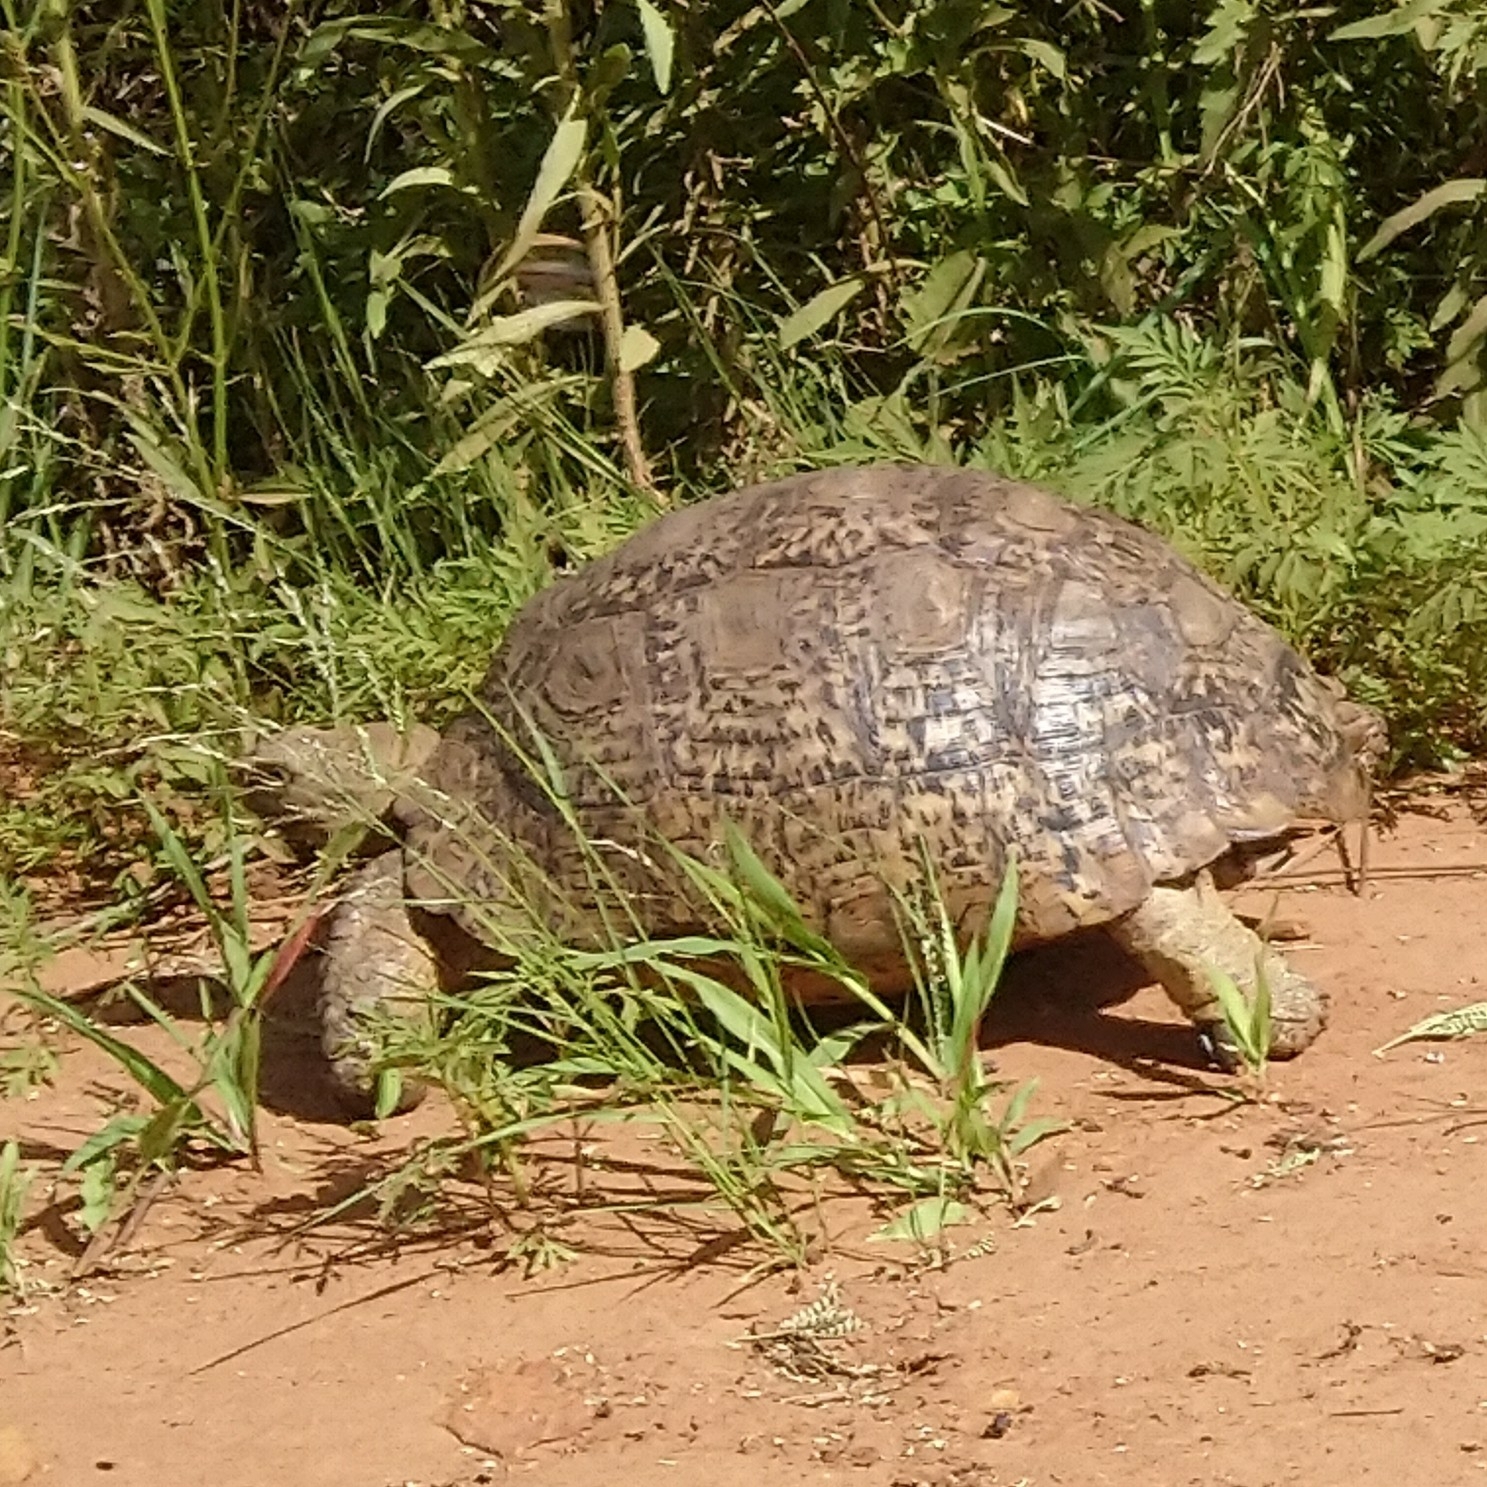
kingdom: Animalia
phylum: Chordata
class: Testudines
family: Testudinidae
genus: Stigmochelys
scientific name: Stigmochelys pardalis
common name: Leopard tortoise
